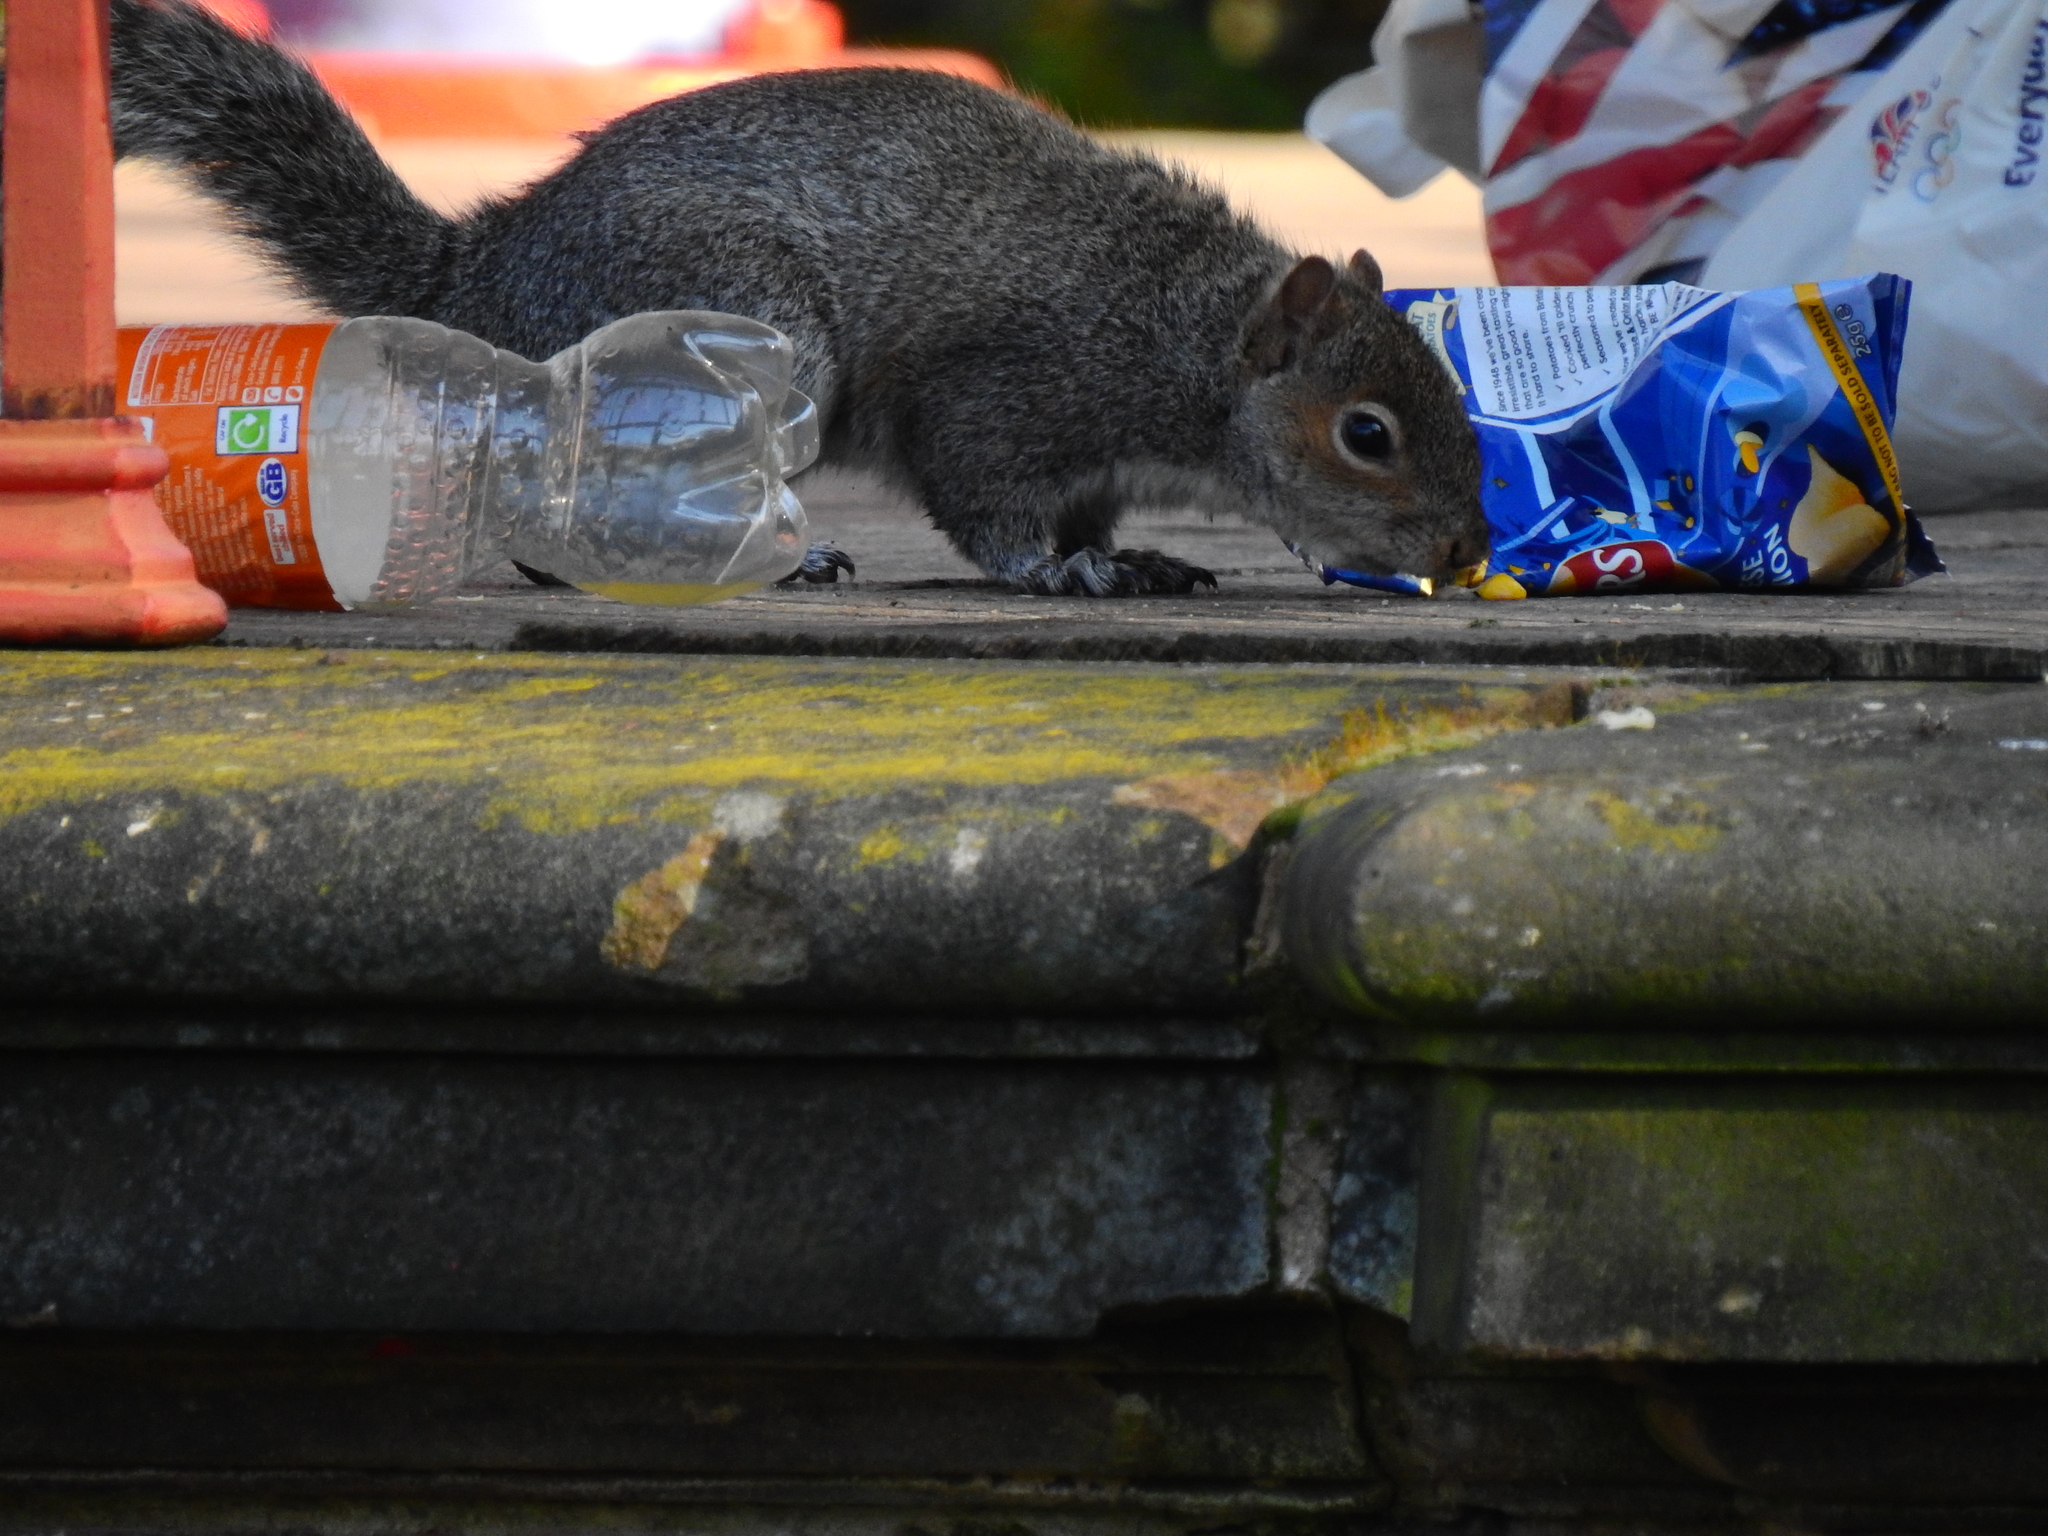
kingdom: Animalia
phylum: Chordata
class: Mammalia
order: Rodentia
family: Sciuridae
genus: Sciurus
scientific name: Sciurus carolinensis
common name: Eastern gray squirrel
